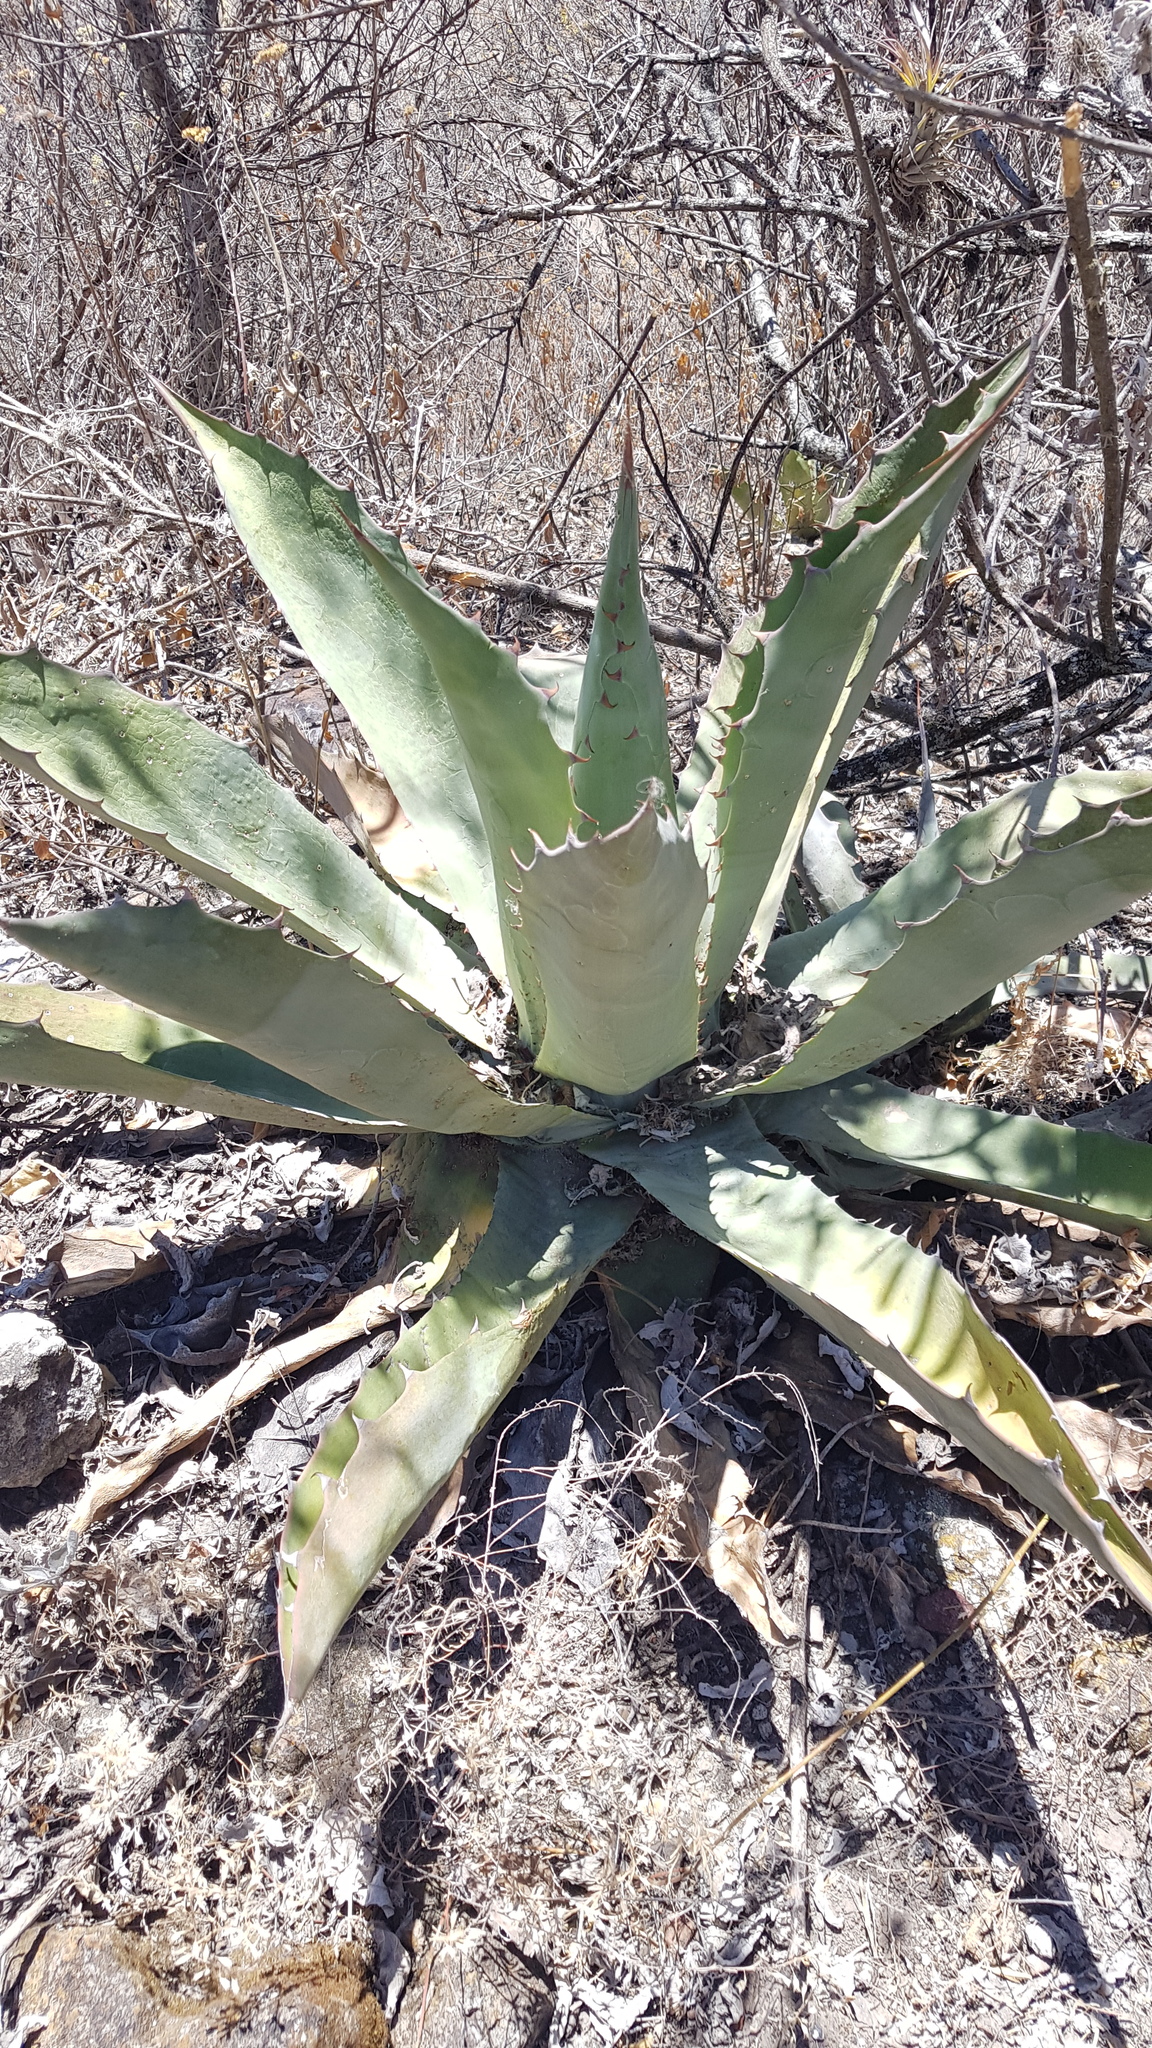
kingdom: Plantae
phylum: Tracheophyta
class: Liliopsida
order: Asparagales
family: Asparagaceae
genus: Agave
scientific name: Agave seemanniana
